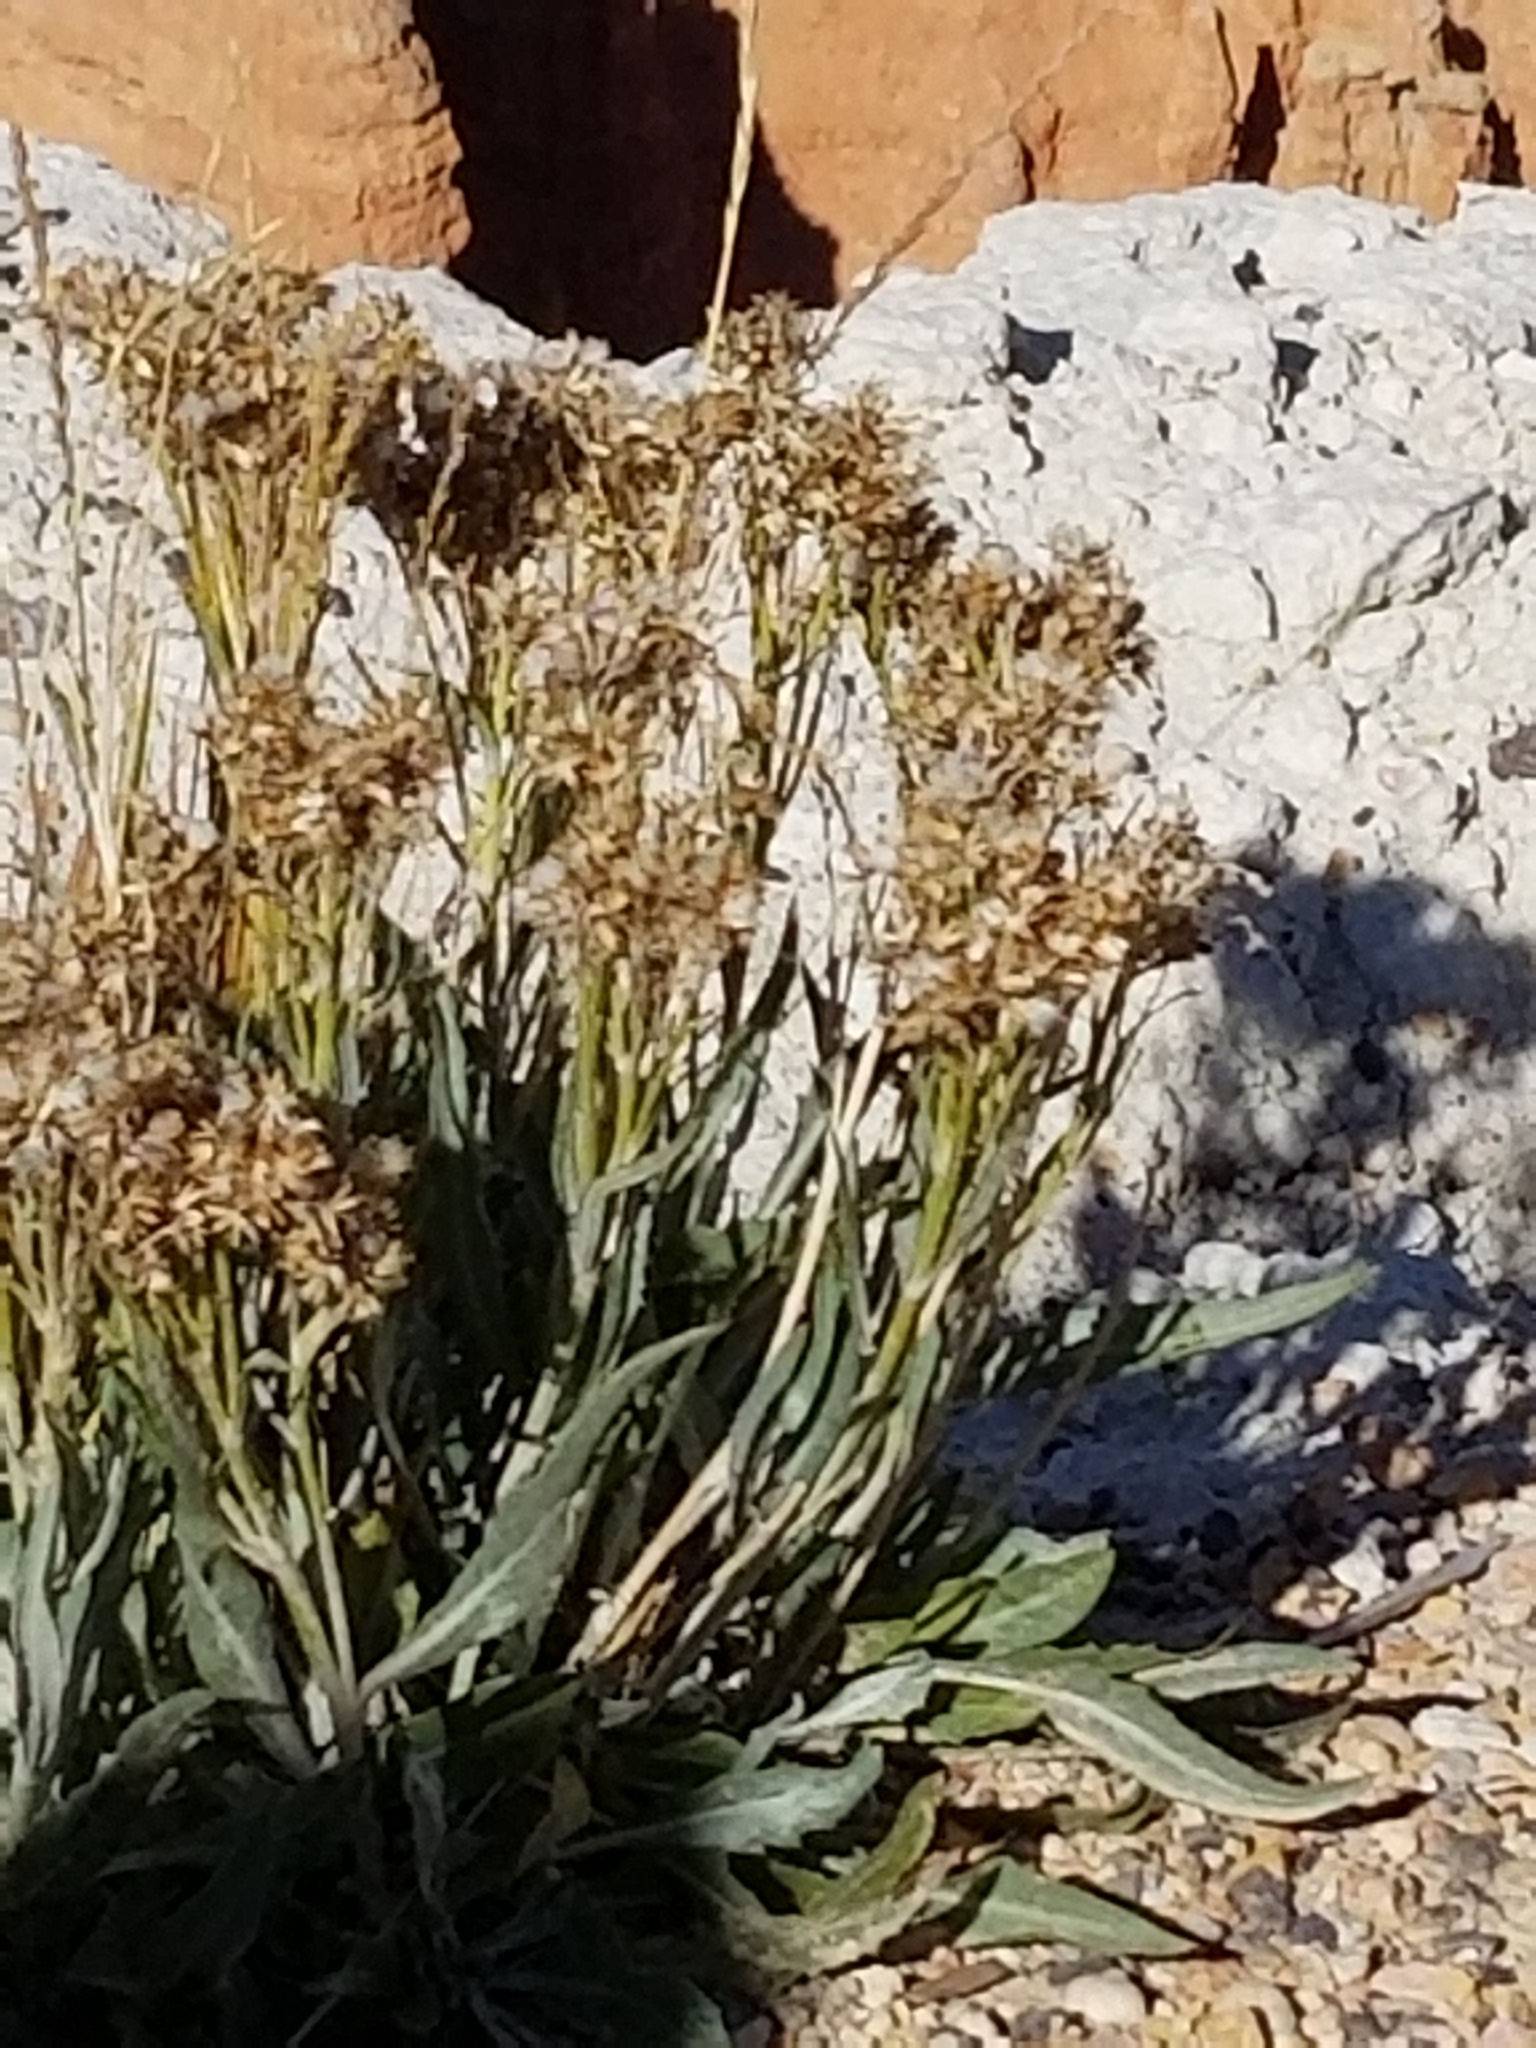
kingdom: Plantae
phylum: Tracheophyta
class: Magnoliopsida
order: Asterales
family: Asteraceae
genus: Senecio
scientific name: Senecio atratus
